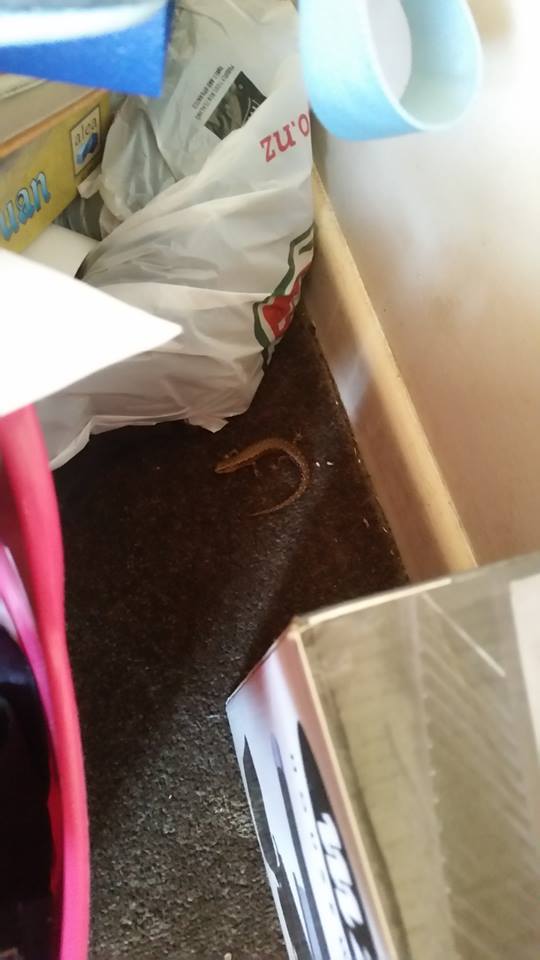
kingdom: Animalia
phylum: Chordata
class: Squamata
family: Scincidae
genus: Oligosoma
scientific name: Oligosoma ornatum
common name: Gray's ornate skink
